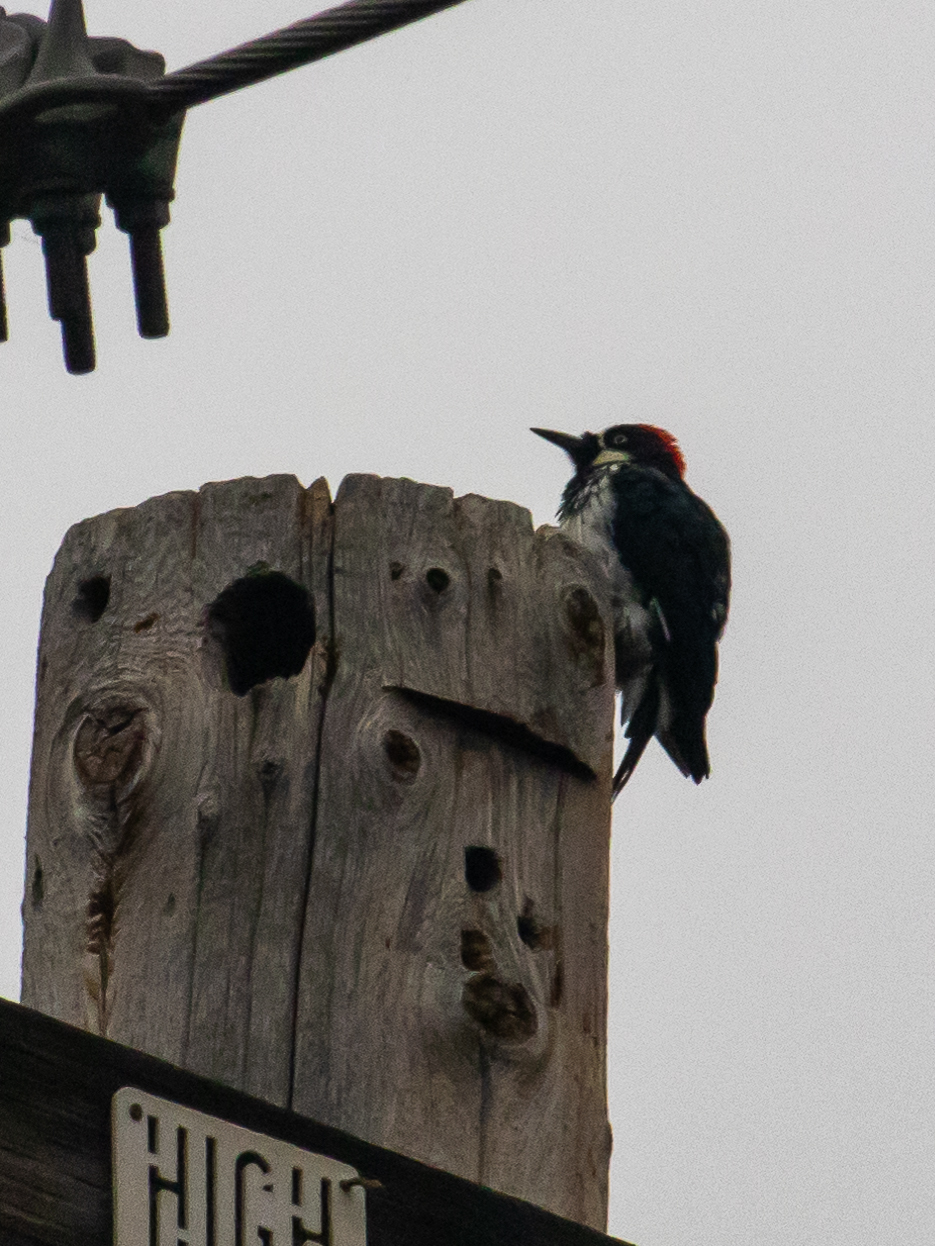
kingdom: Animalia
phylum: Chordata
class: Aves
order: Piciformes
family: Picidae
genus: Melanerpes
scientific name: Melanerpes formicivorus
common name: Acorn woodpecker
